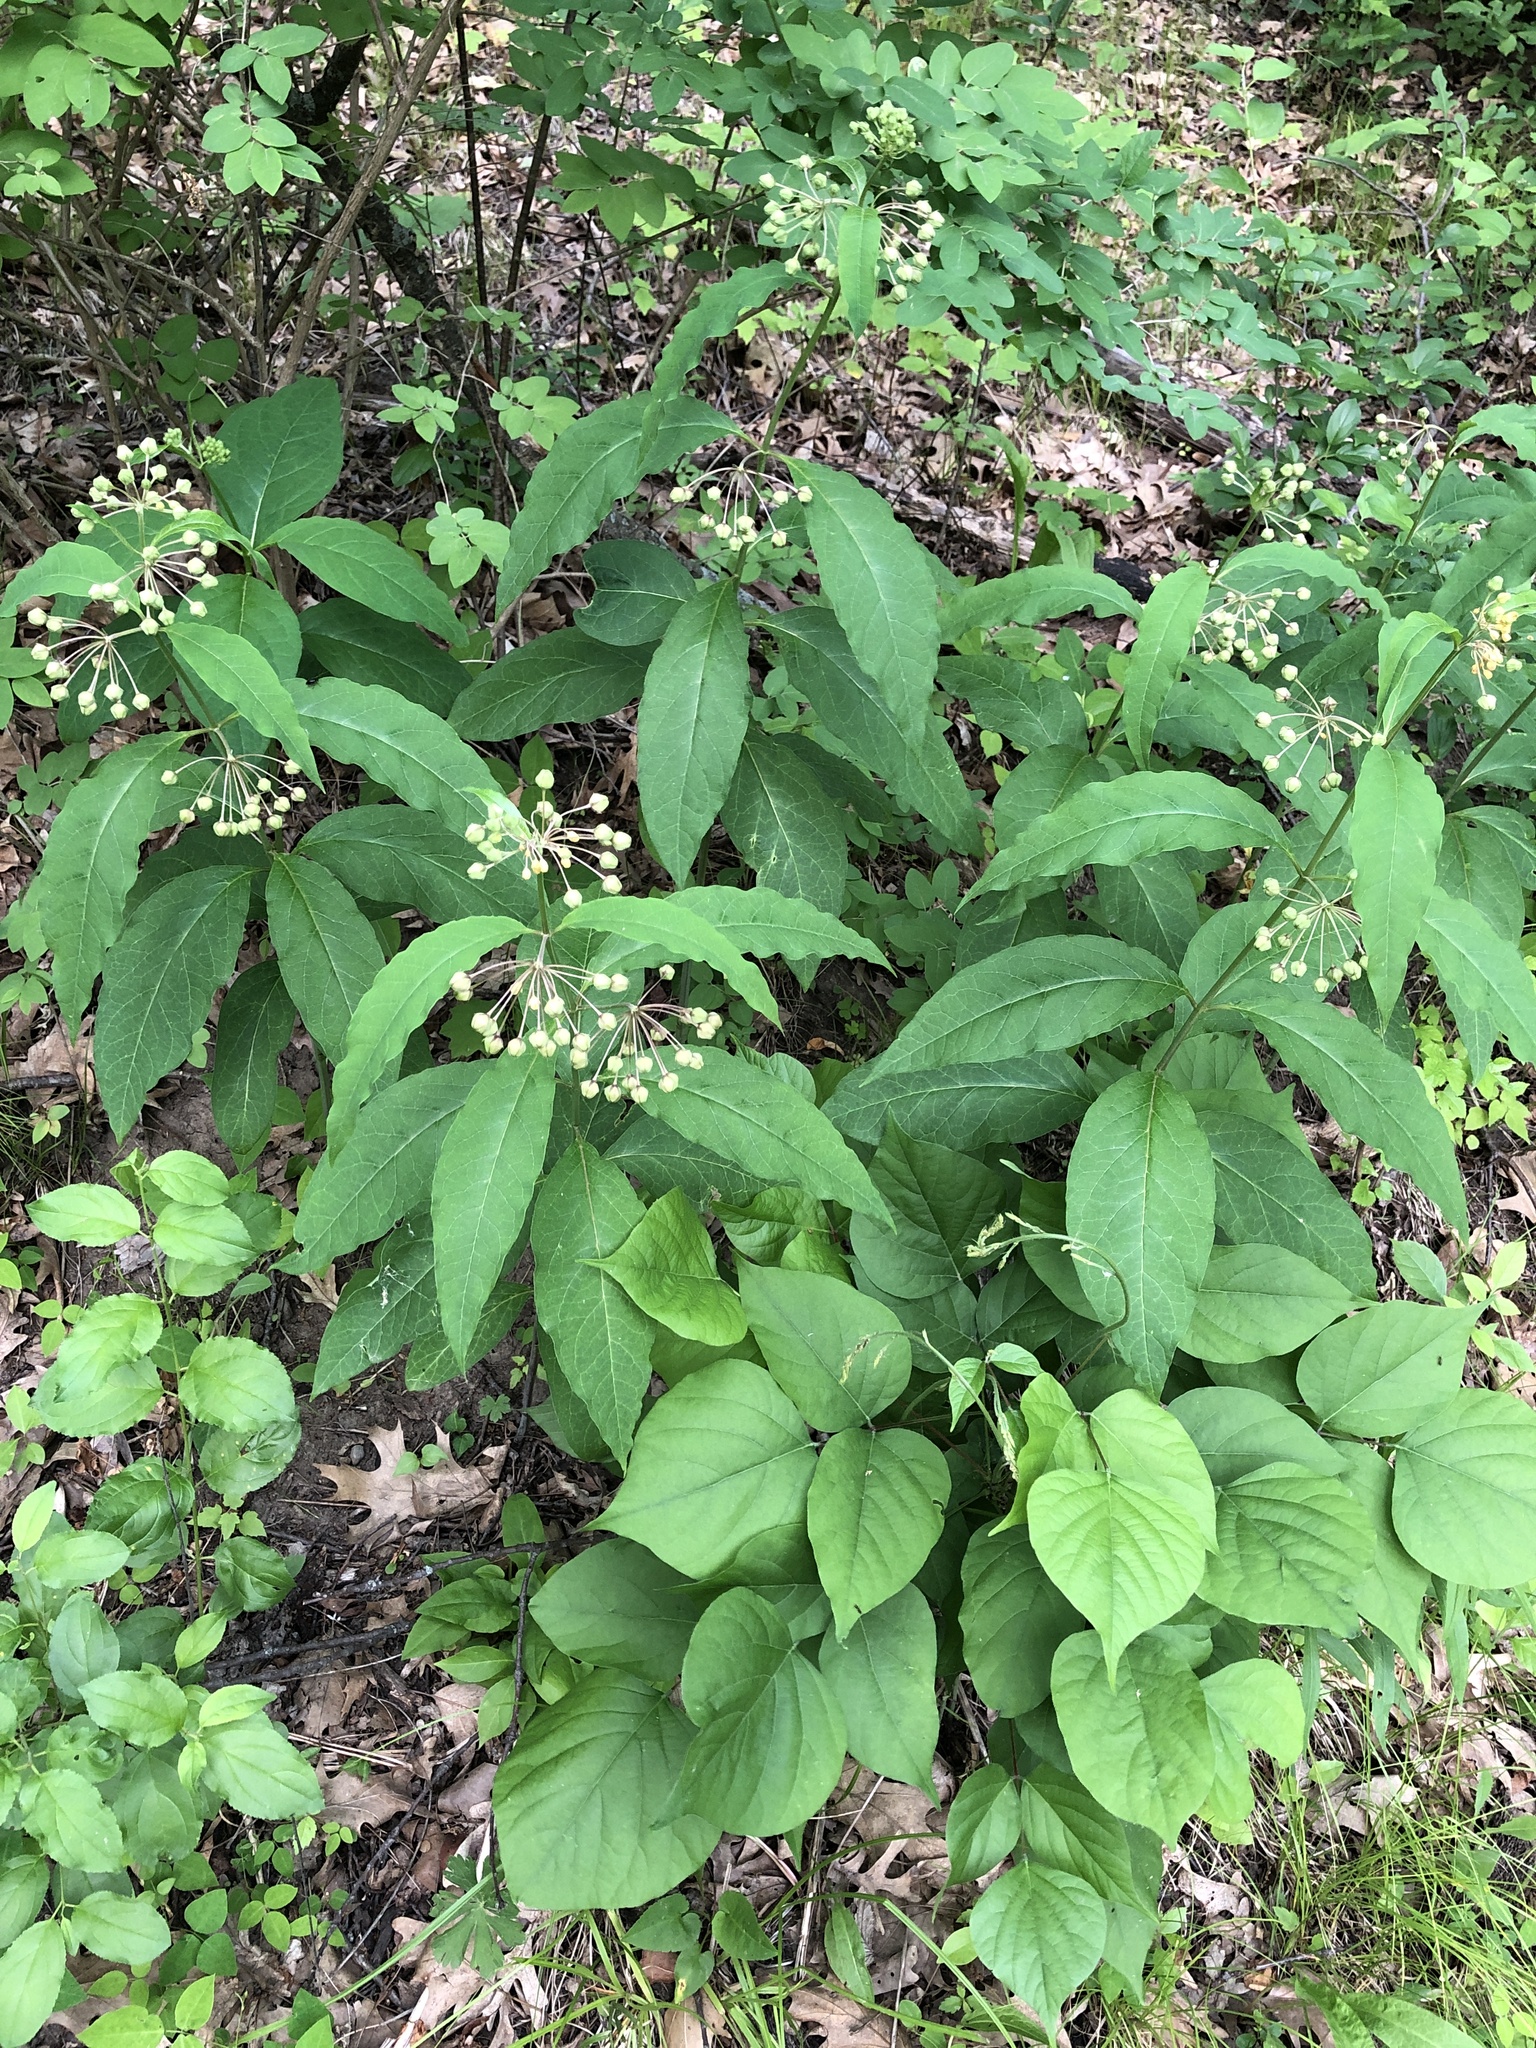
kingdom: Plantae
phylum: Tracheophyta
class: Magnoliopsida
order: Gentianales
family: Apocynaceae
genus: Asclepias
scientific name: Asclepias exaltata
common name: Poke milkweed
